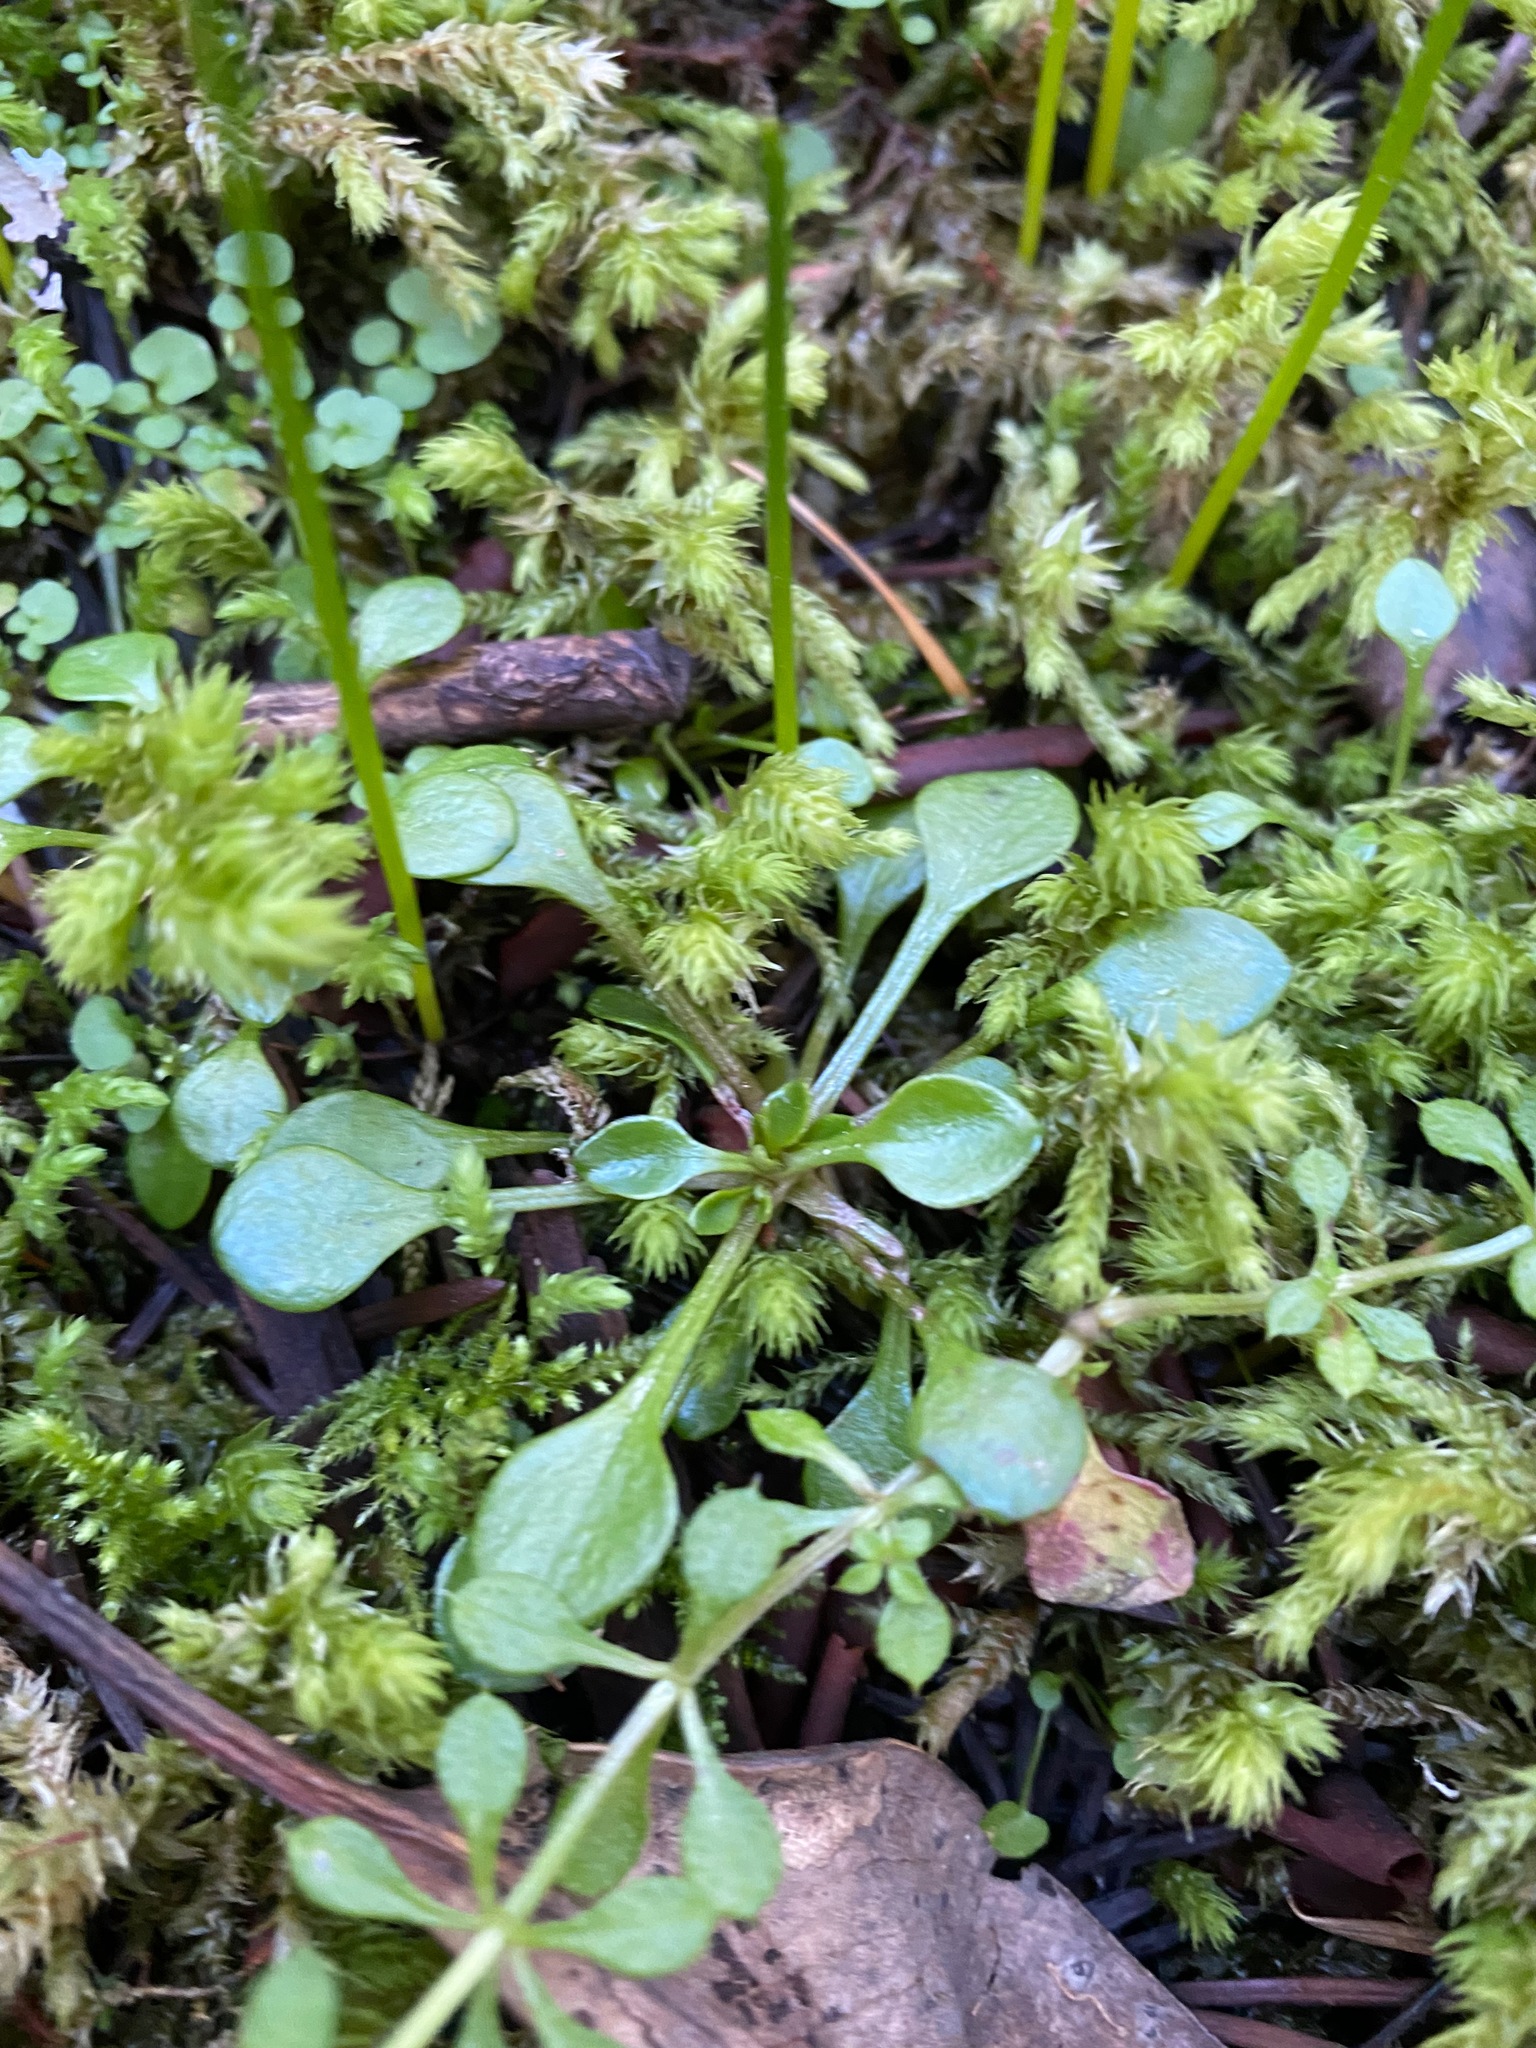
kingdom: Plantae
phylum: Tracheophyta
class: Magnoliopsida
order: Caryophyllales
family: Montiaceae
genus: Montia
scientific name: Montia parvifolia
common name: Small-leaved blinks
